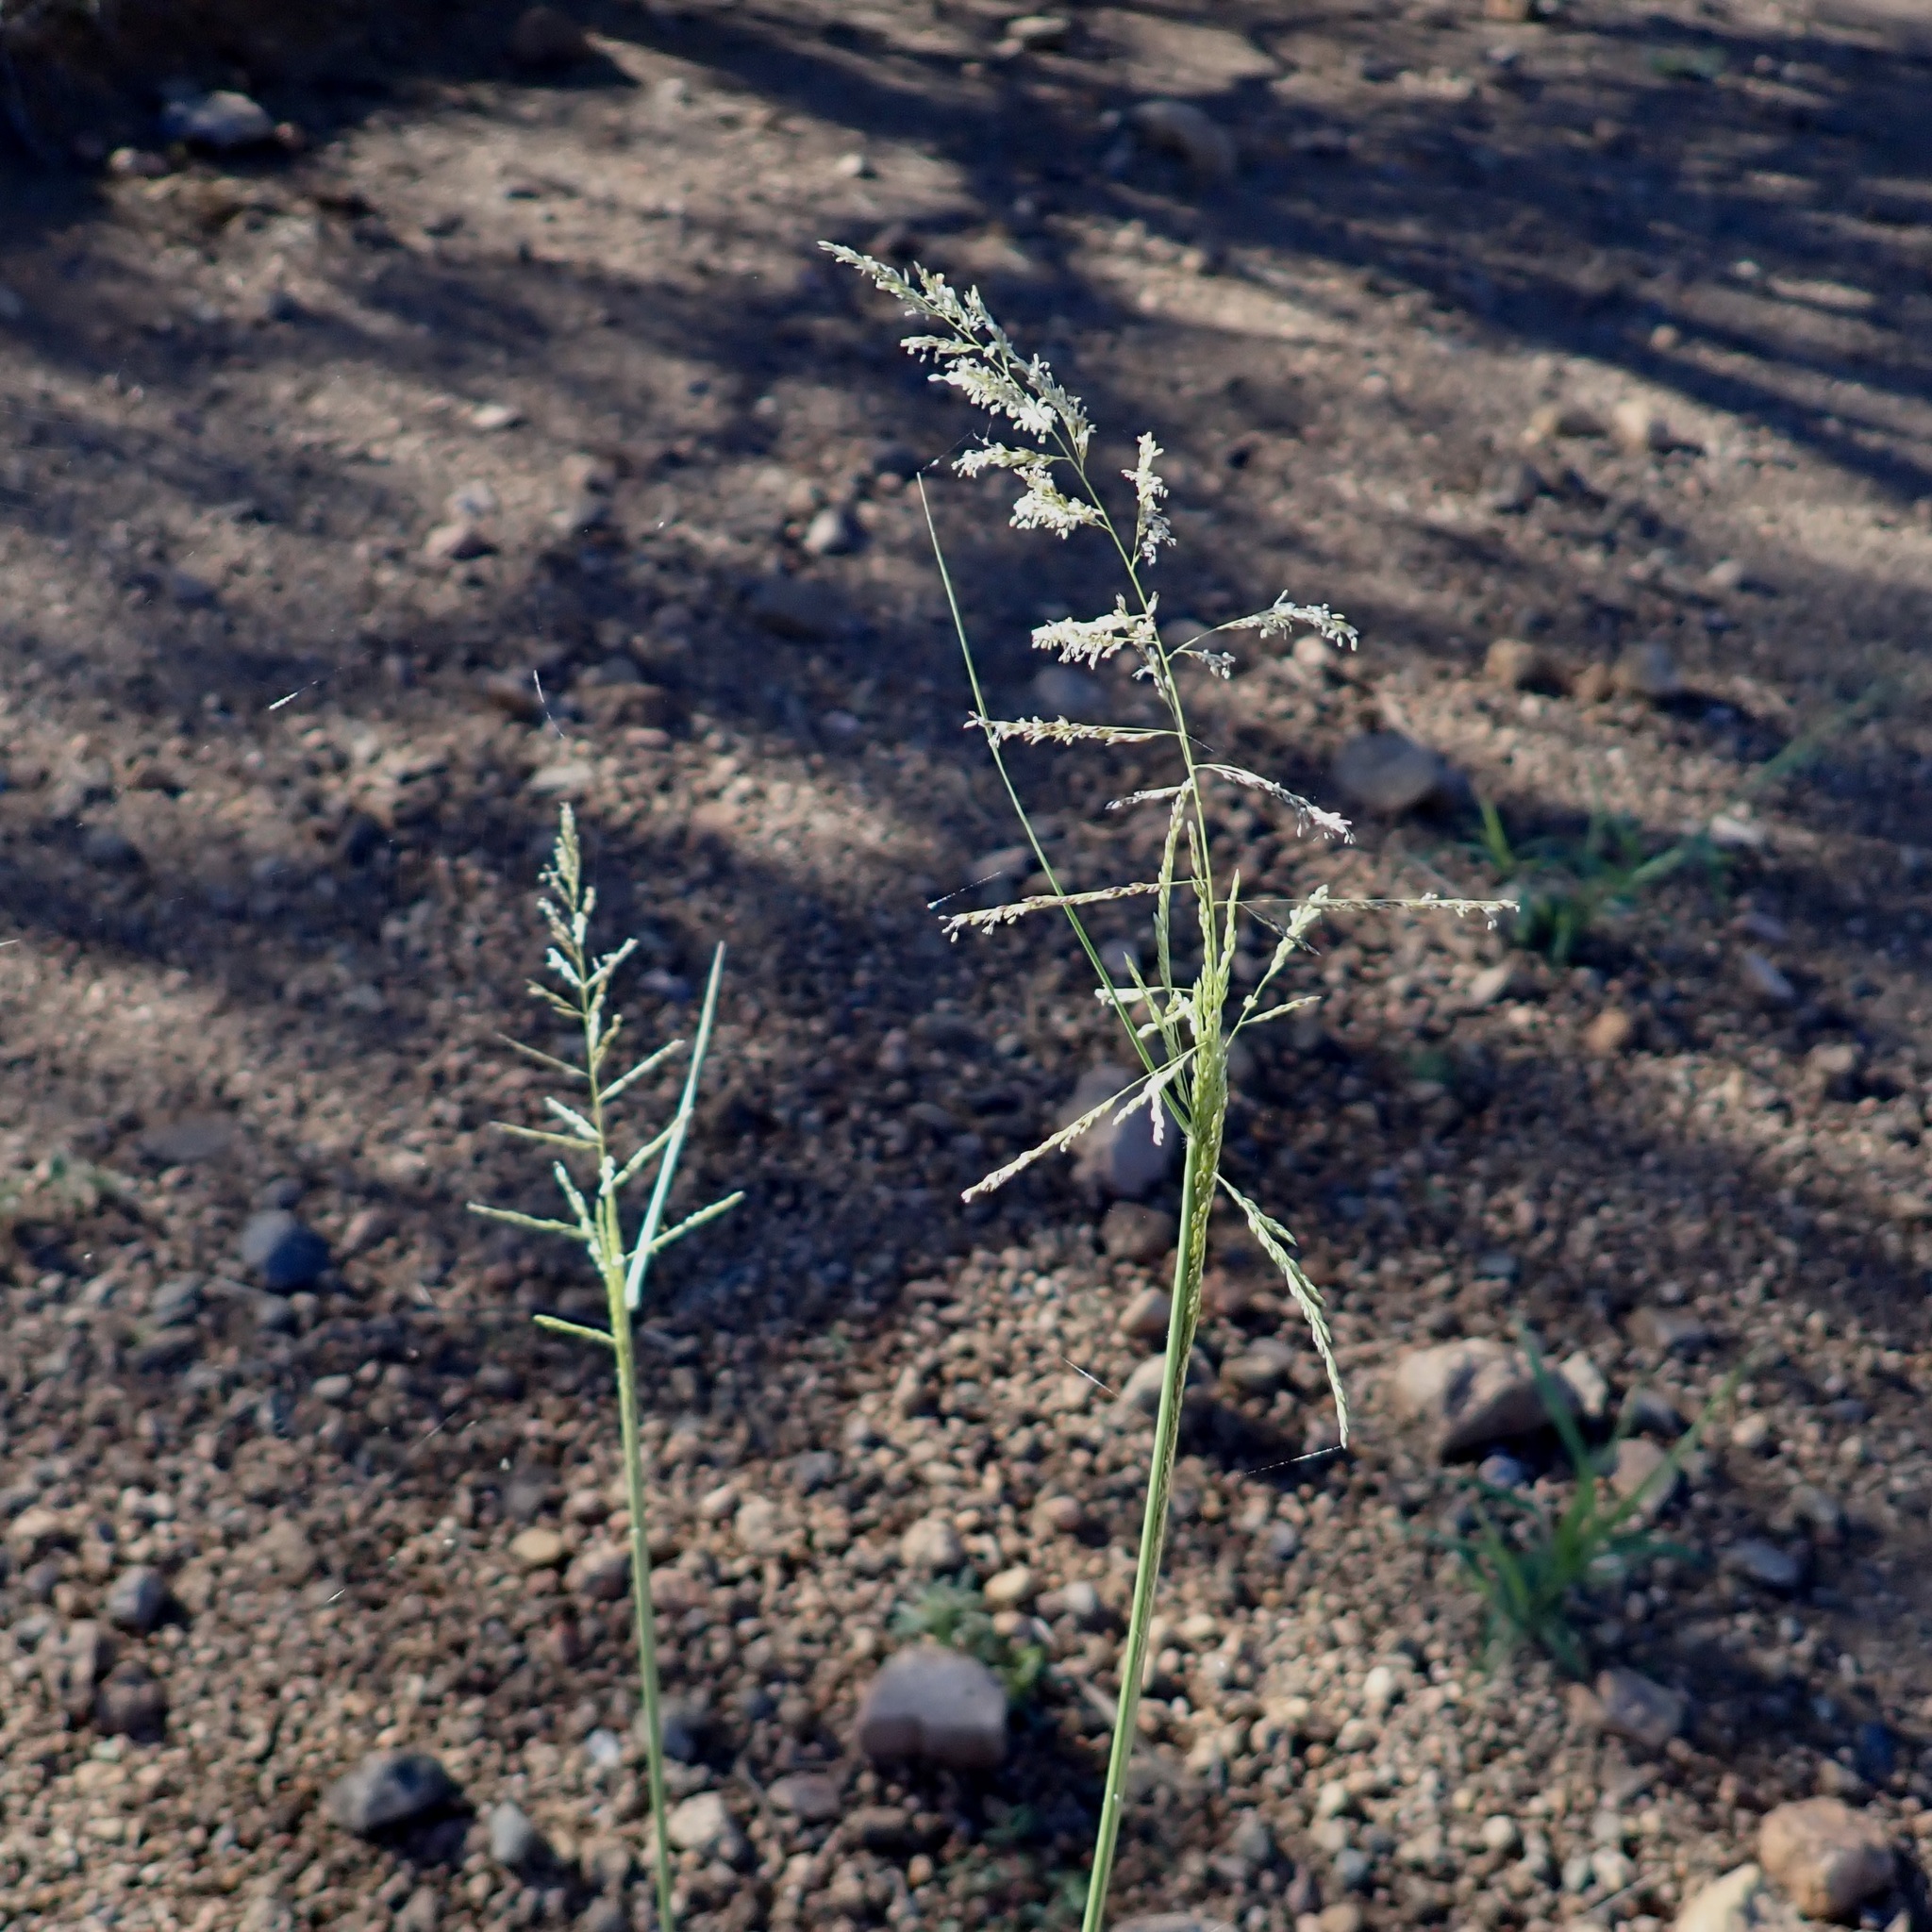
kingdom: Plantae
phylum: Tracheophyta
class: Liliopsida
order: Poales
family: Poaceae
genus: Sporobolus
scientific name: Sporobolus cryptandrus
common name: Sand dropseed
